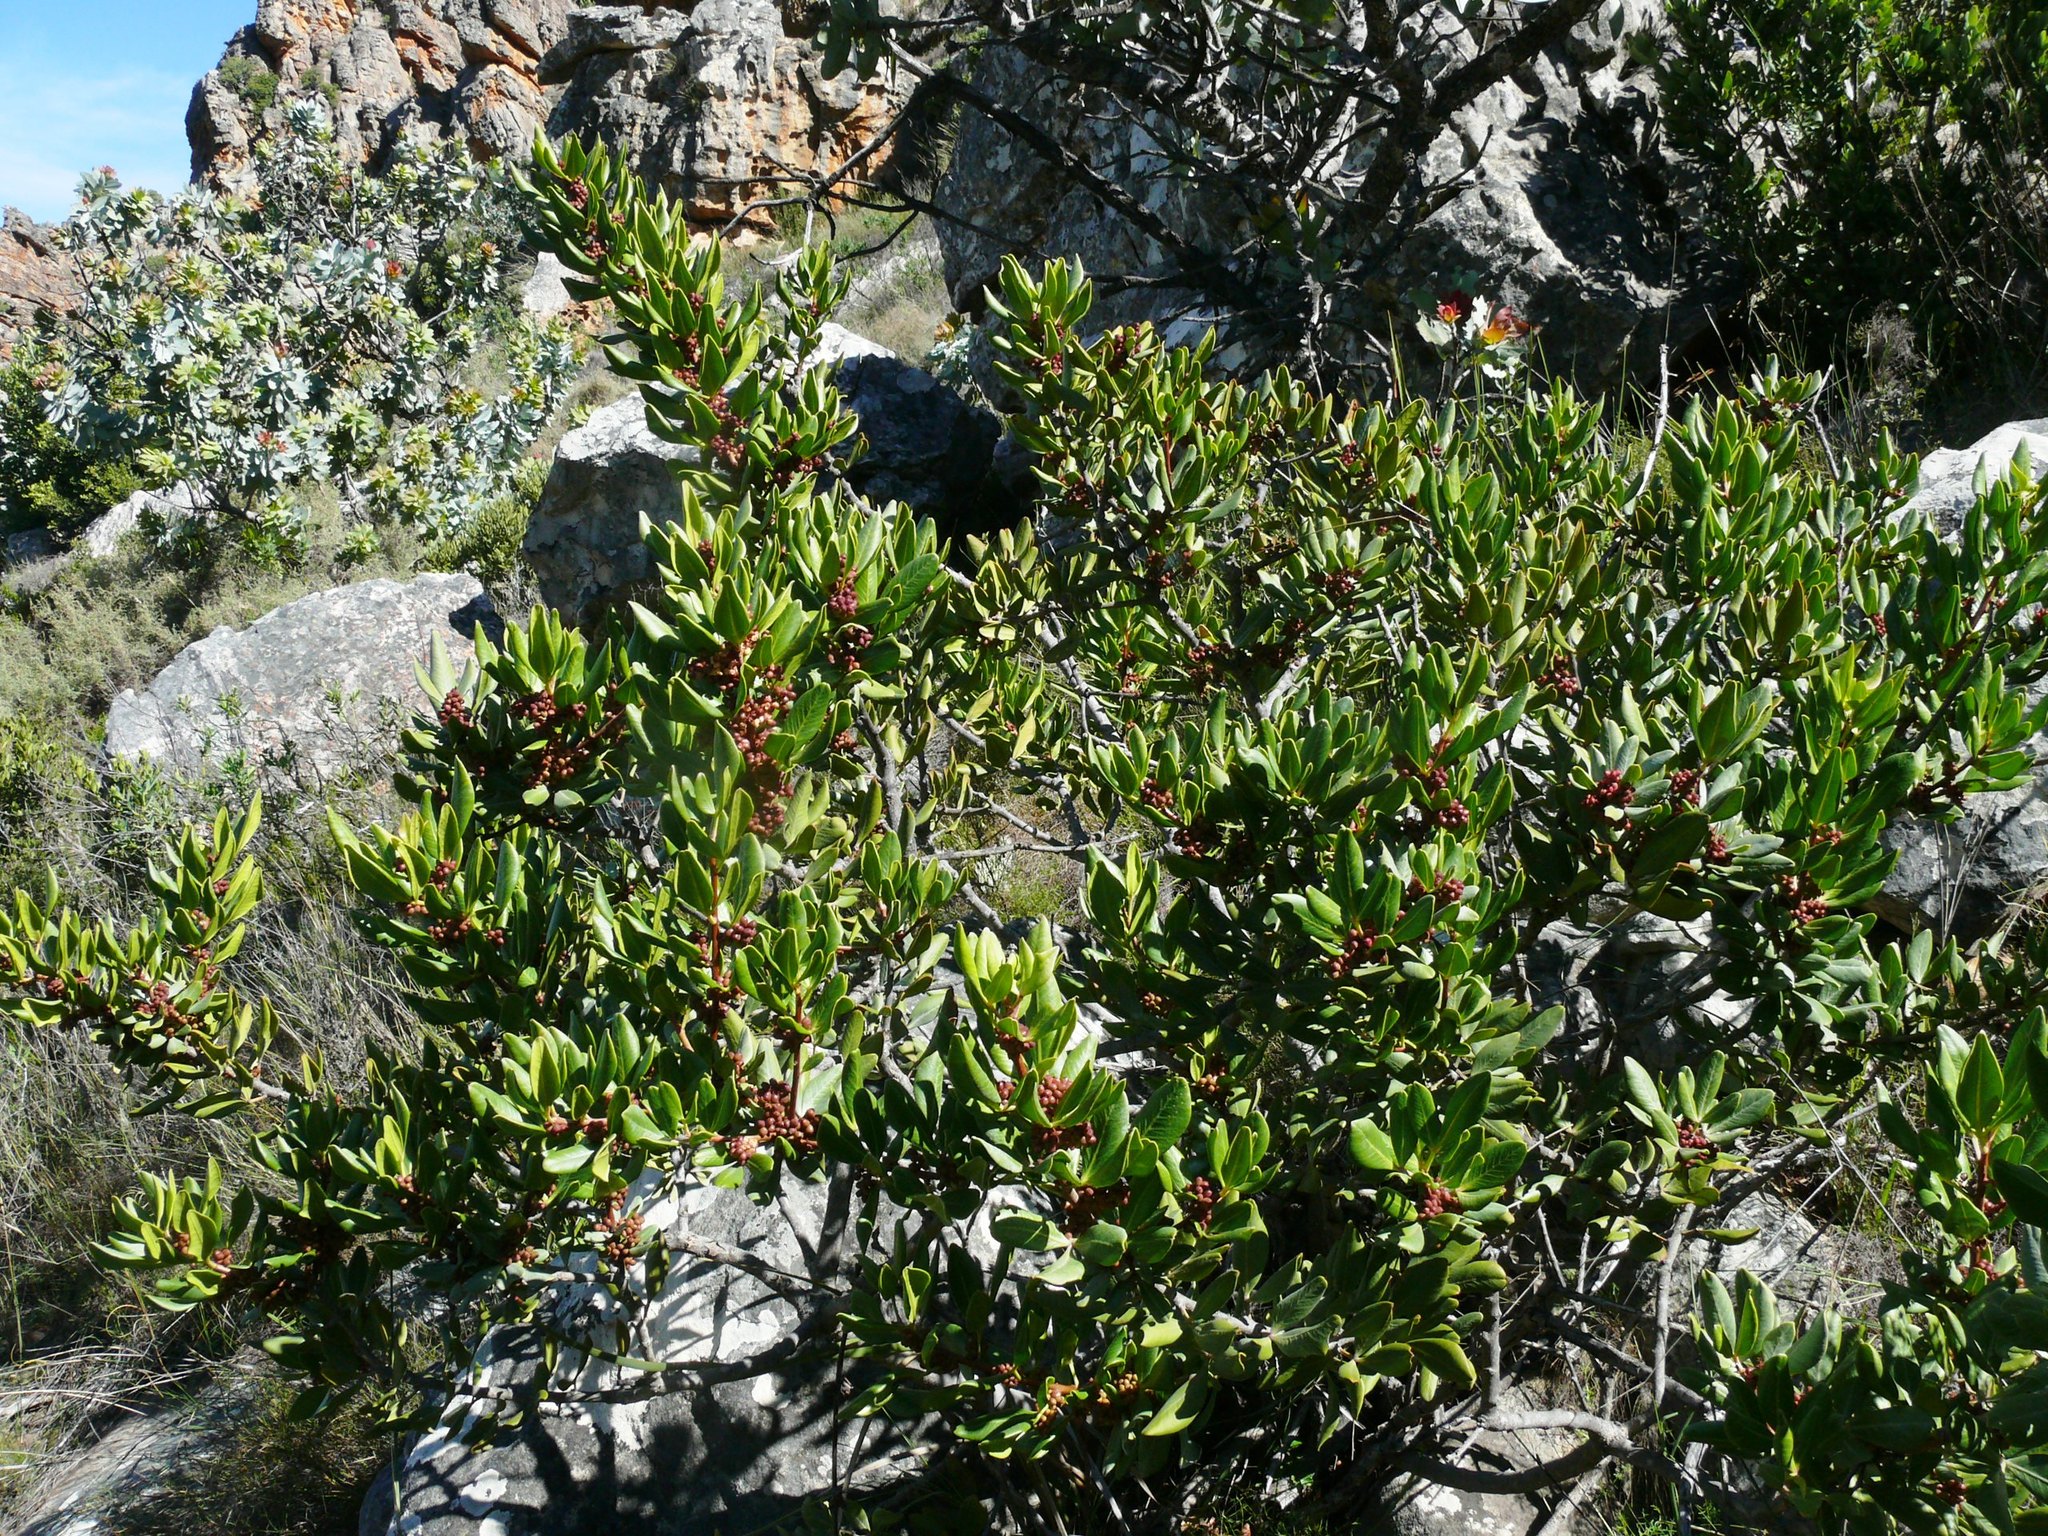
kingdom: Plantae
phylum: Tracheophyta
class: Magnoliopsida
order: Sapindales
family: Anacardiaceae
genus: Searsia
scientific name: Searsia scytophylla
